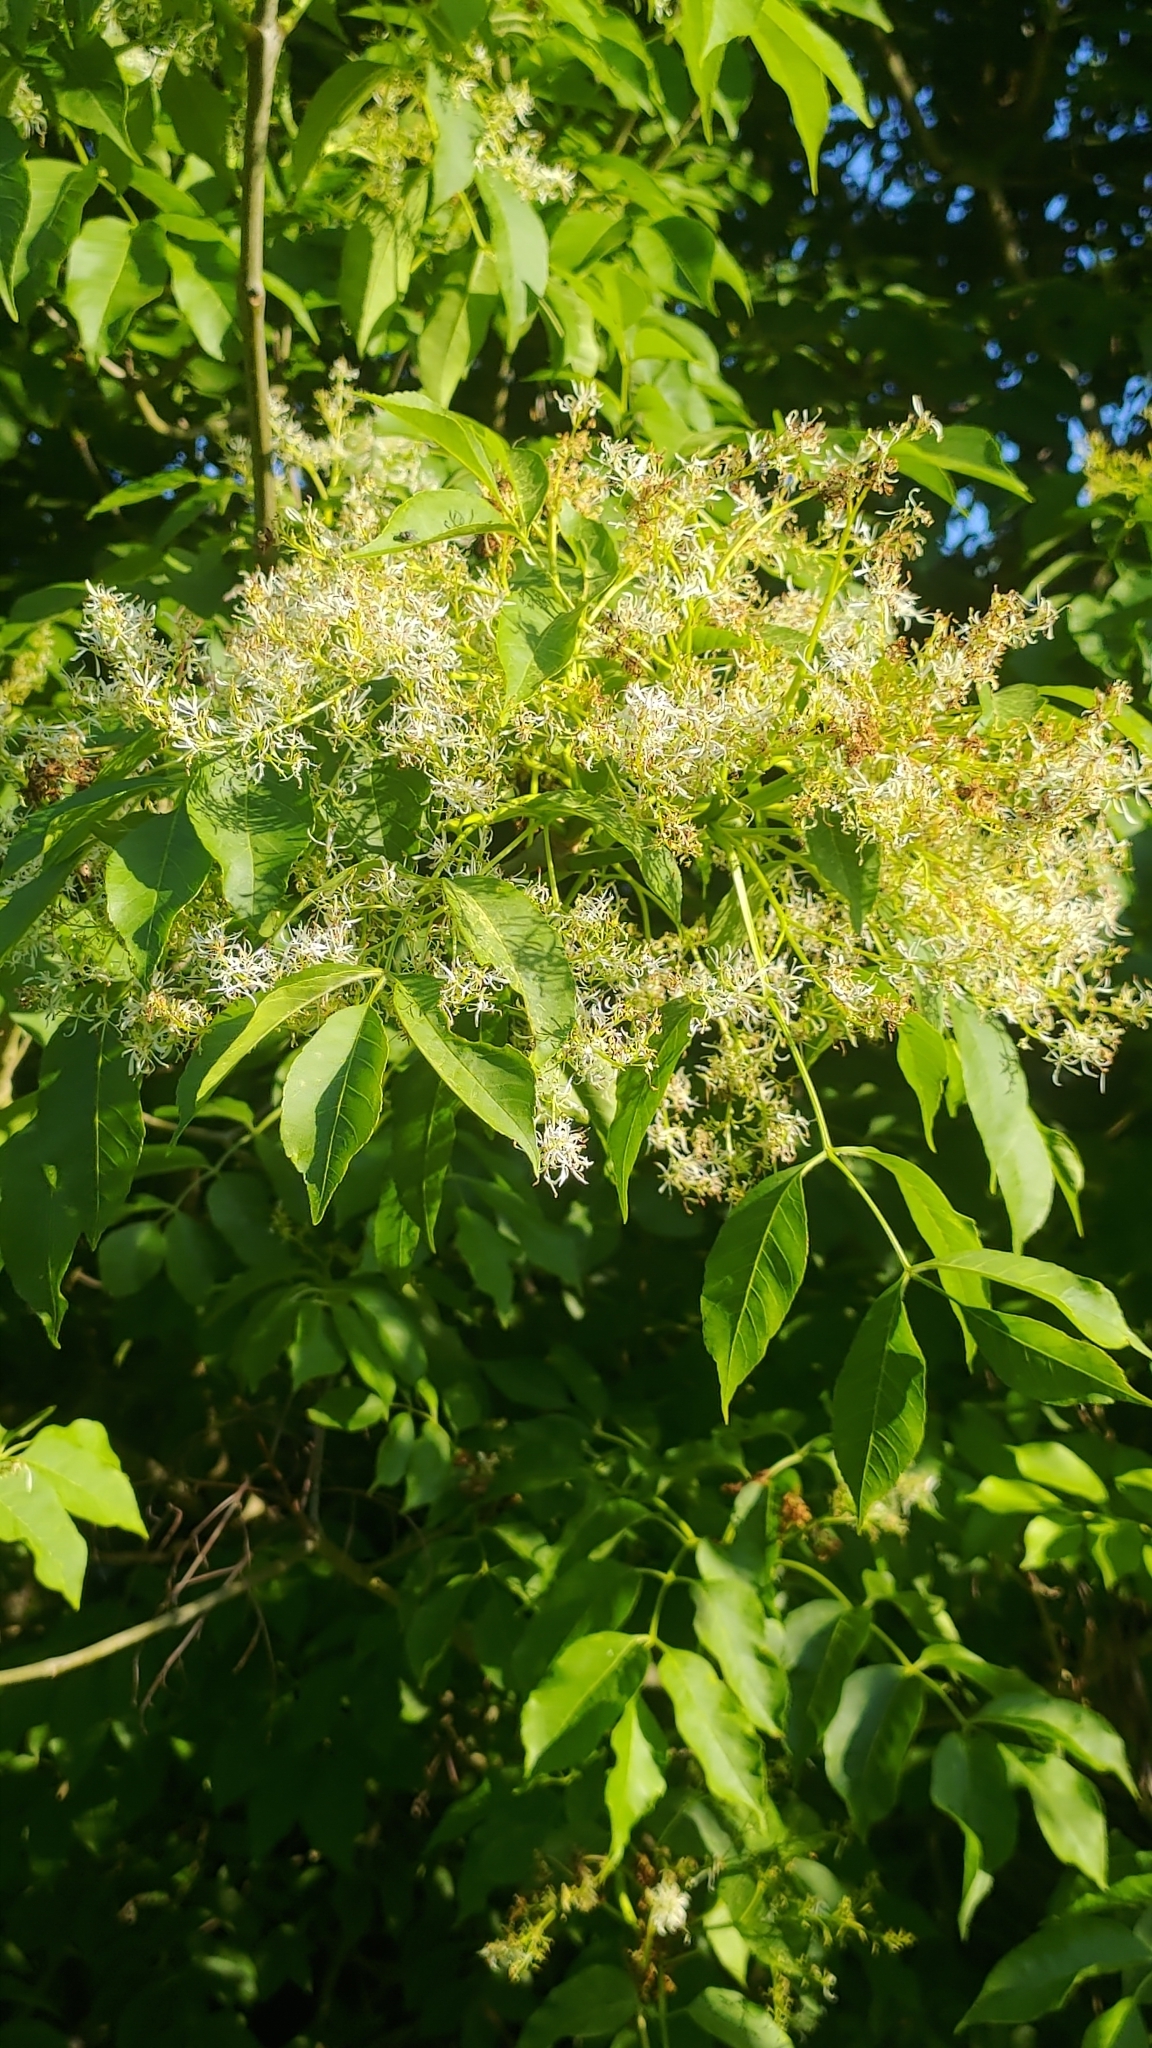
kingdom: Plantae
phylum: Tracheophyta
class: Magnoliopsida
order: Lamiales
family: Oleaceae
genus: Fraxinus
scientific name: Fraxinus ornus
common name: Manna ash
